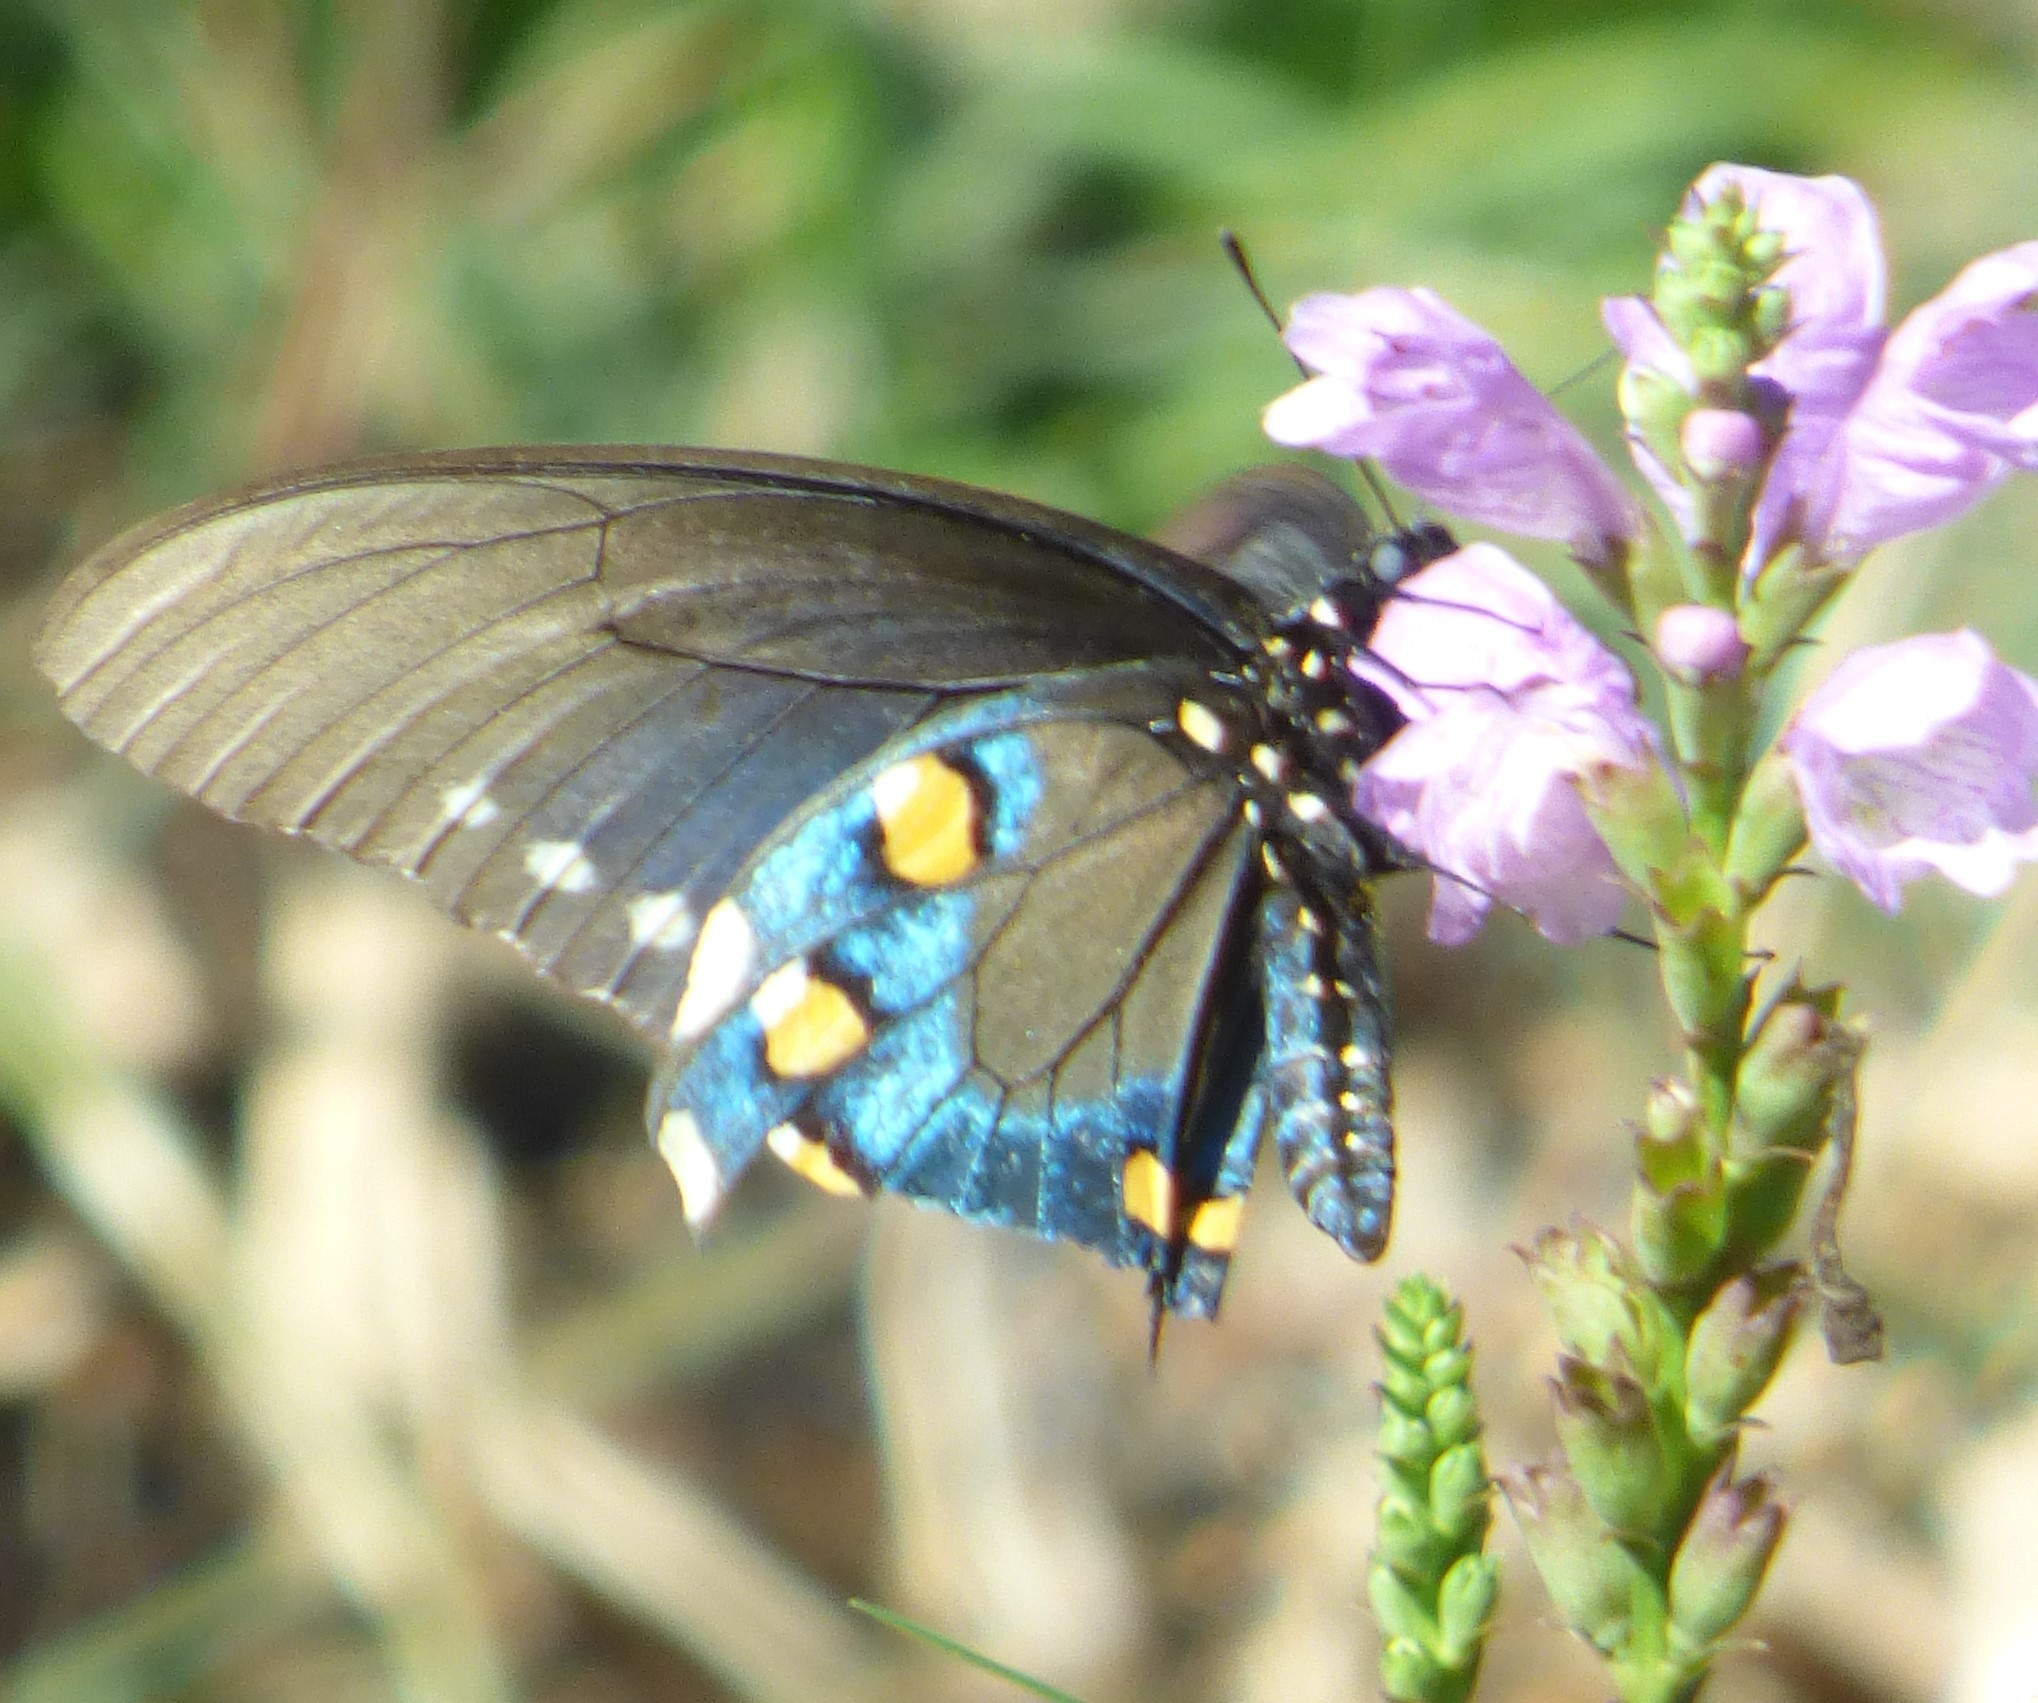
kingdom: Animalia
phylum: Arthropoda
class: Insecta
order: Lepidoptera
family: Papilionidae
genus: Battus
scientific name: Battus philenor
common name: Pipevine swallowtail
